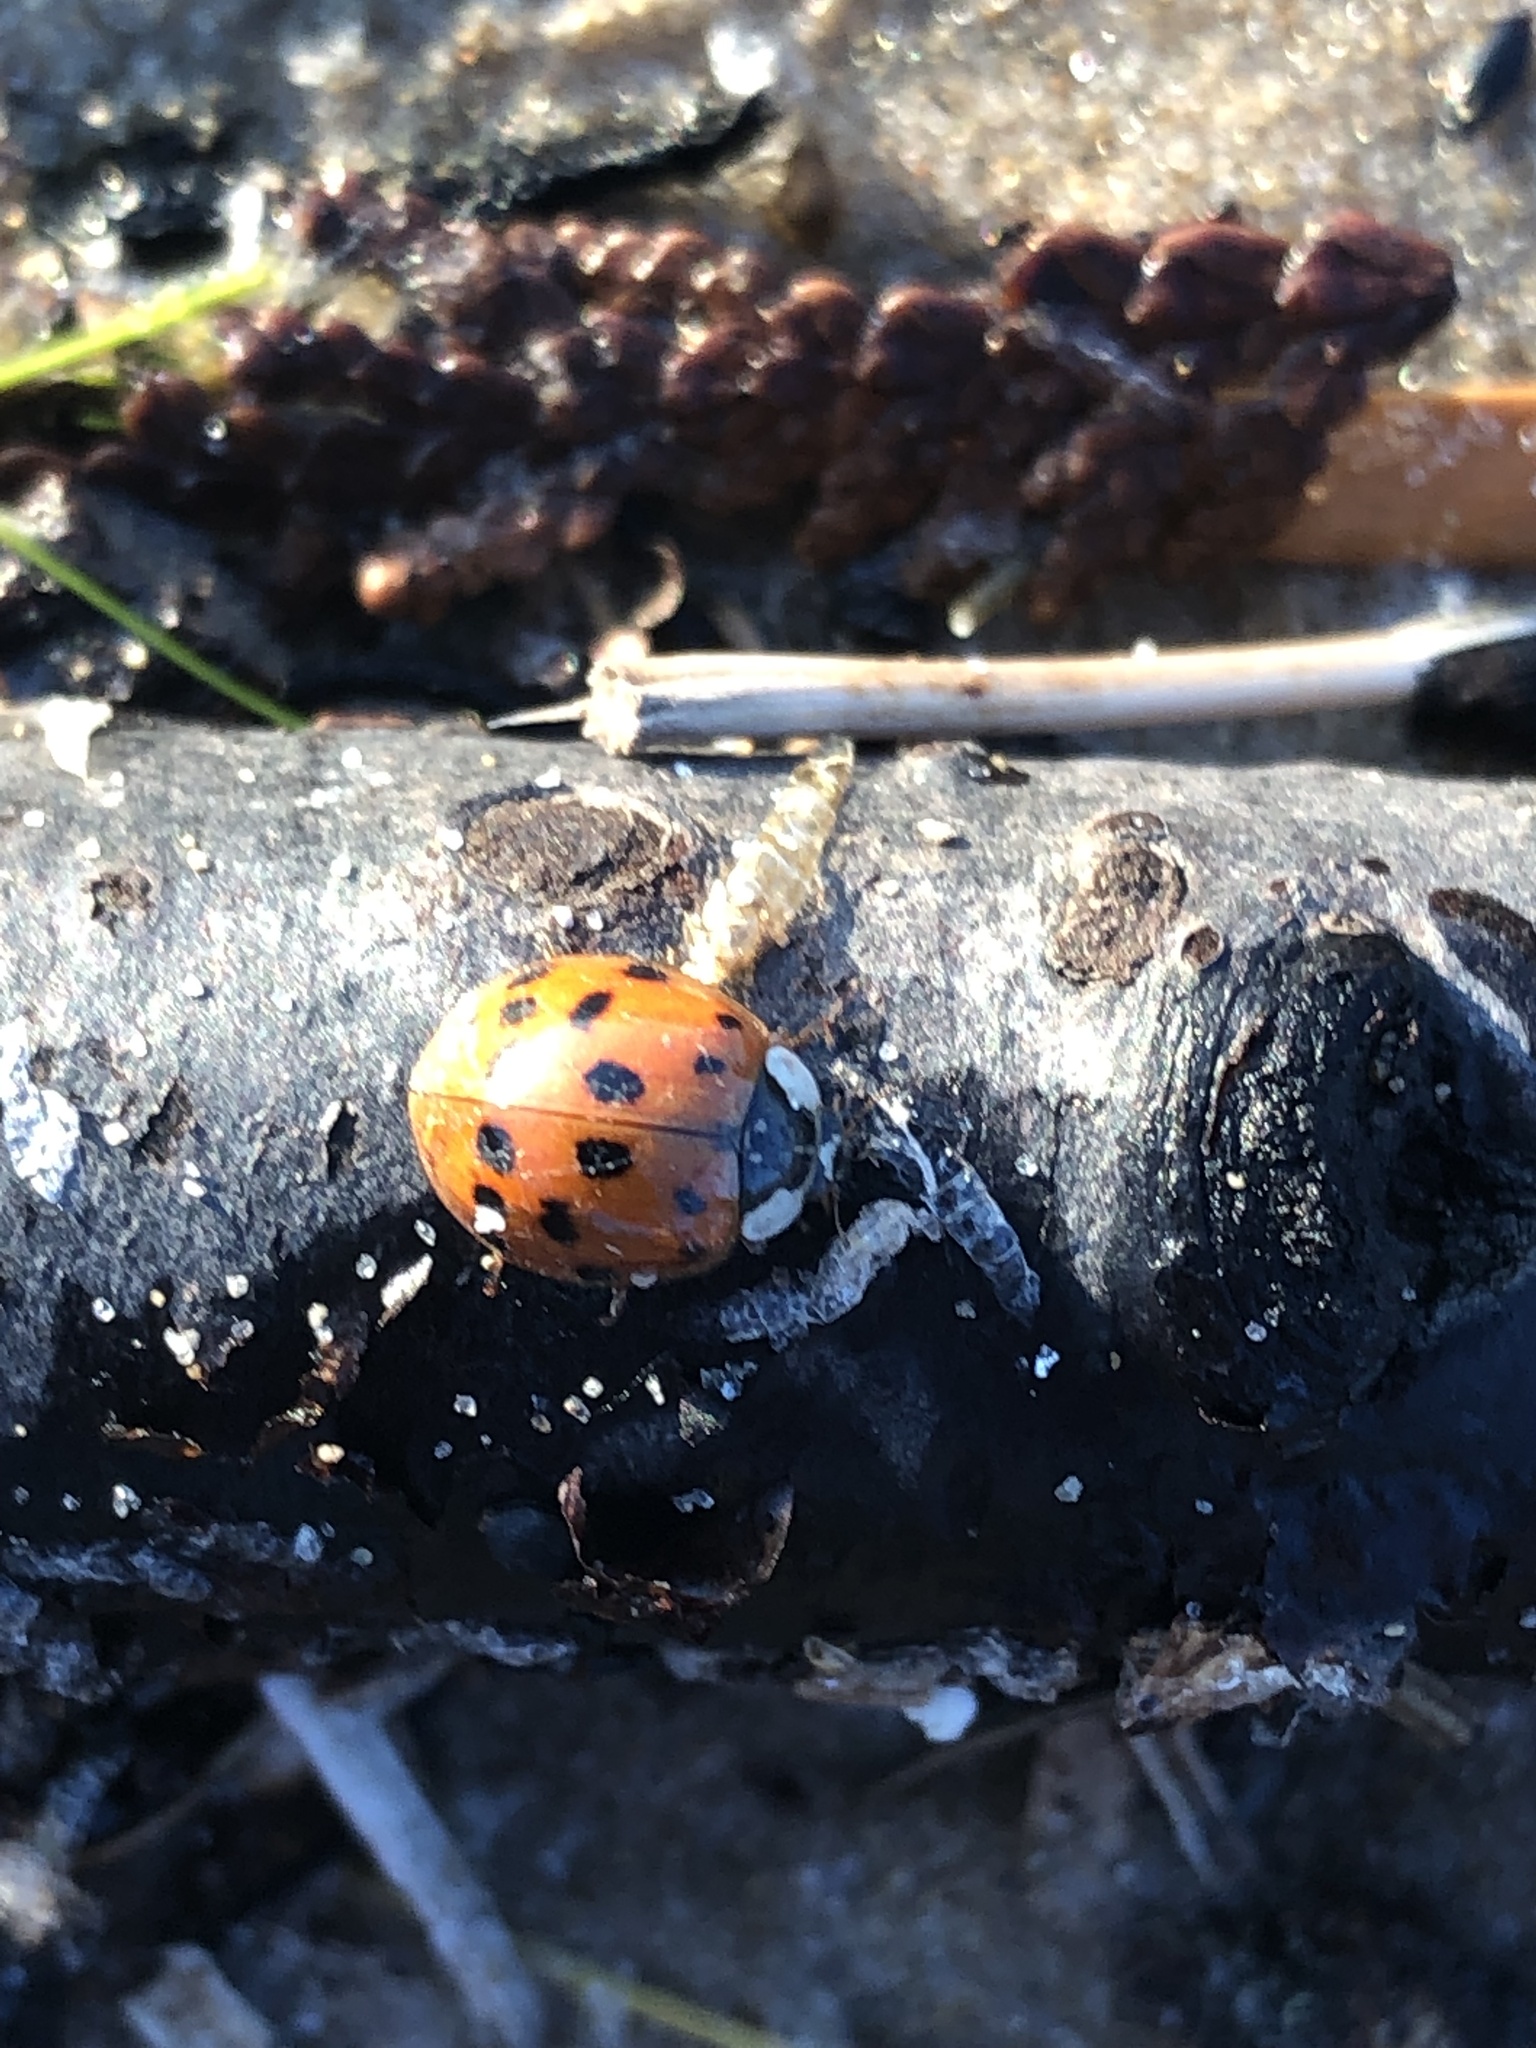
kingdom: Animalia
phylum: Arthropoda
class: Insecta
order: Coleoptera
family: Coccinellidae
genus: Harmonia
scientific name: Harmonia axyridis
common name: Harlequin ladybird
